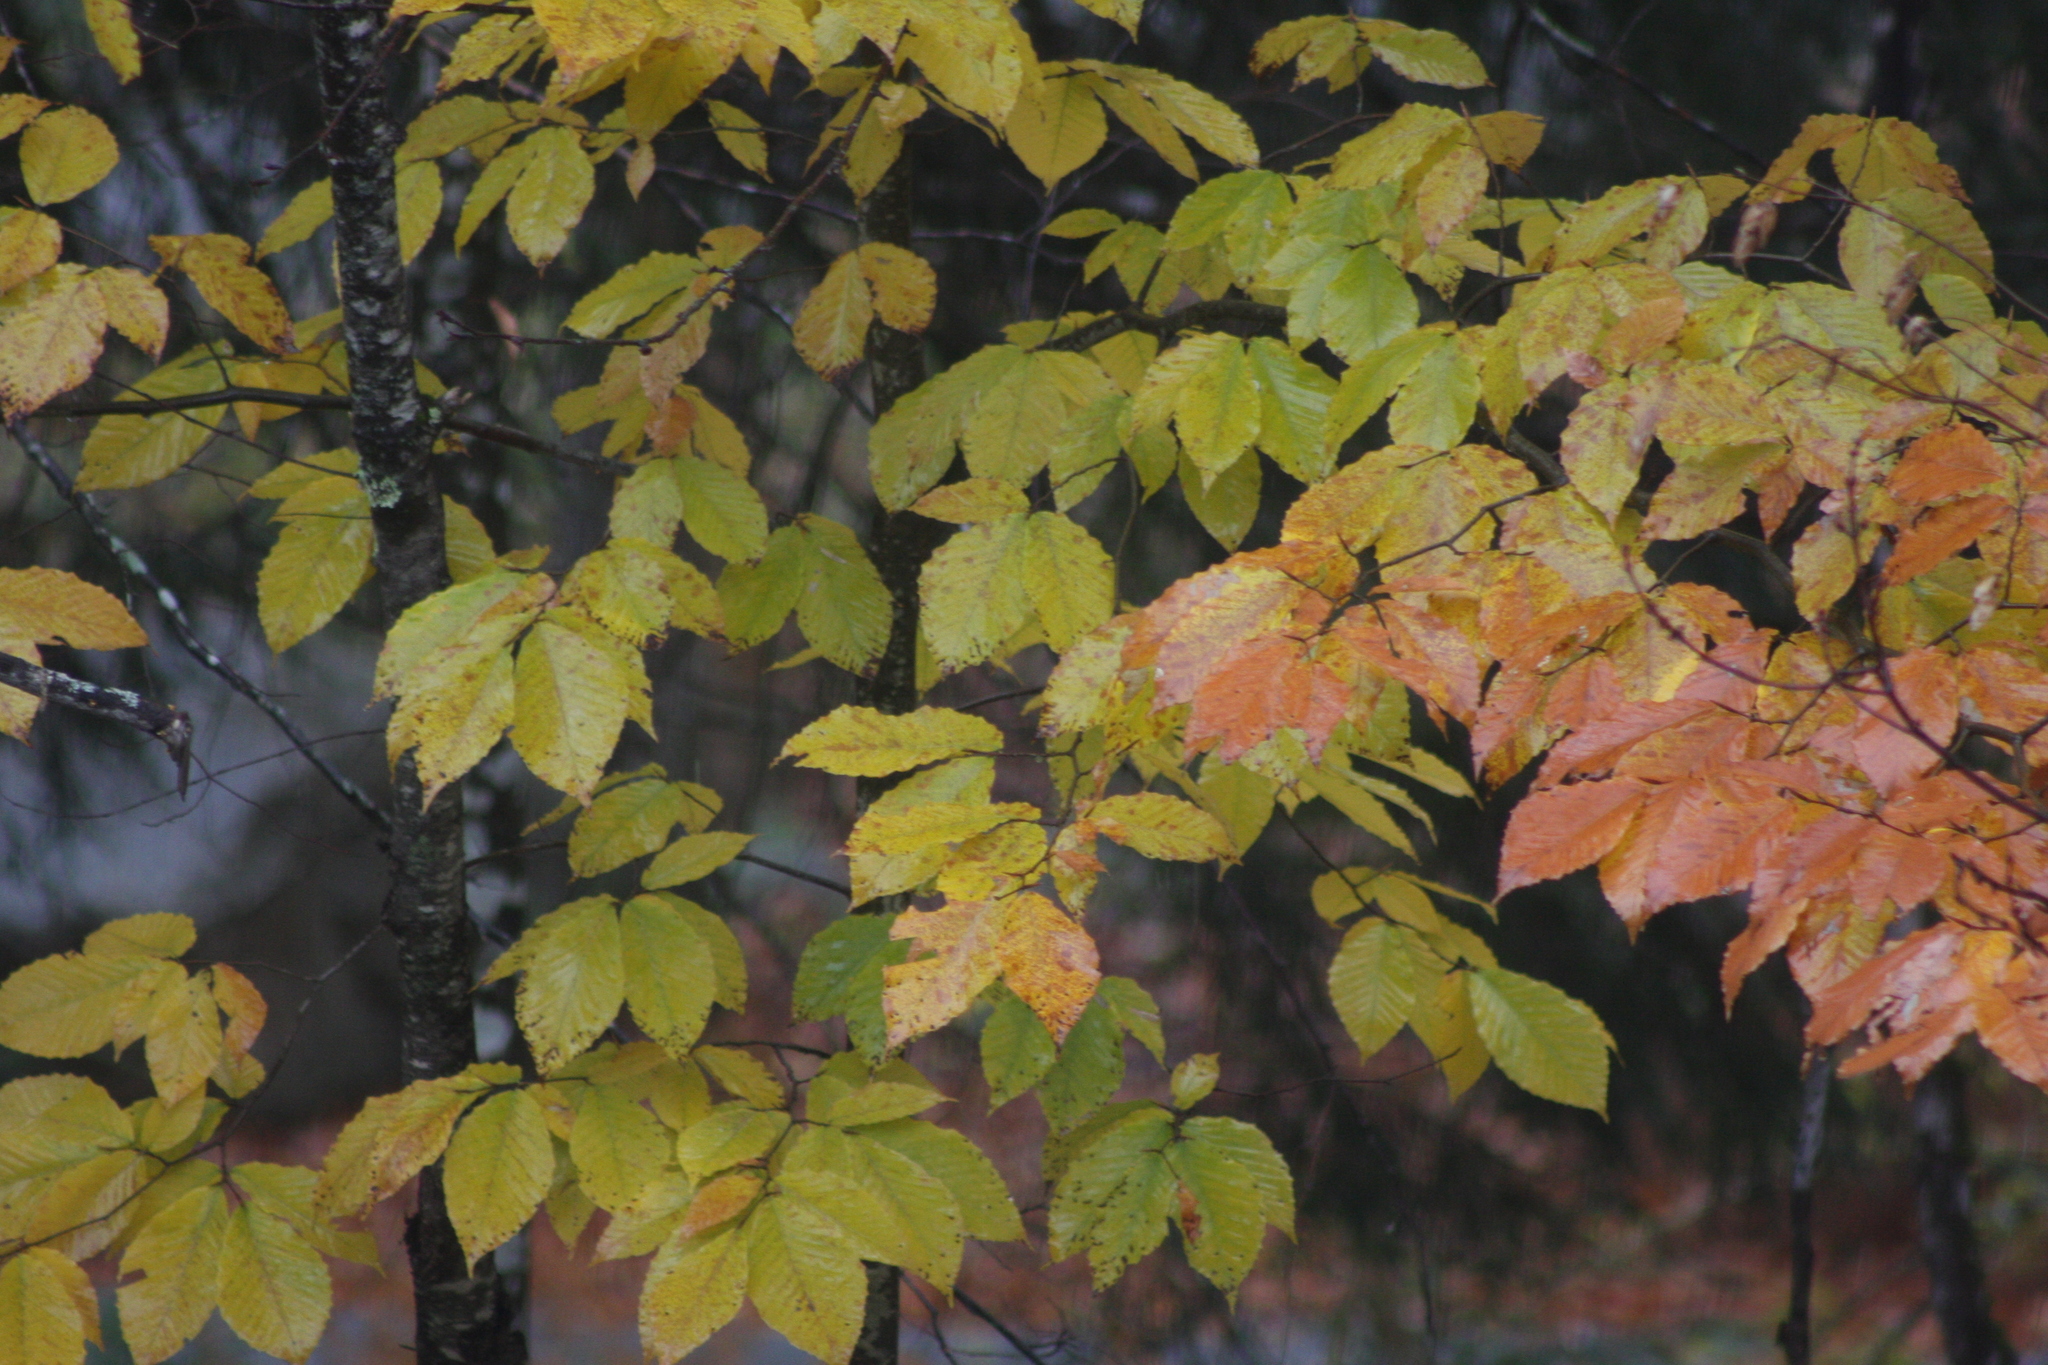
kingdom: Plantae
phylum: Tracheophyta
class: Magnoliopsida
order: Fagales
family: Fagaceae
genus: Fagus
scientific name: Fagus grandifolia
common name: American beech
